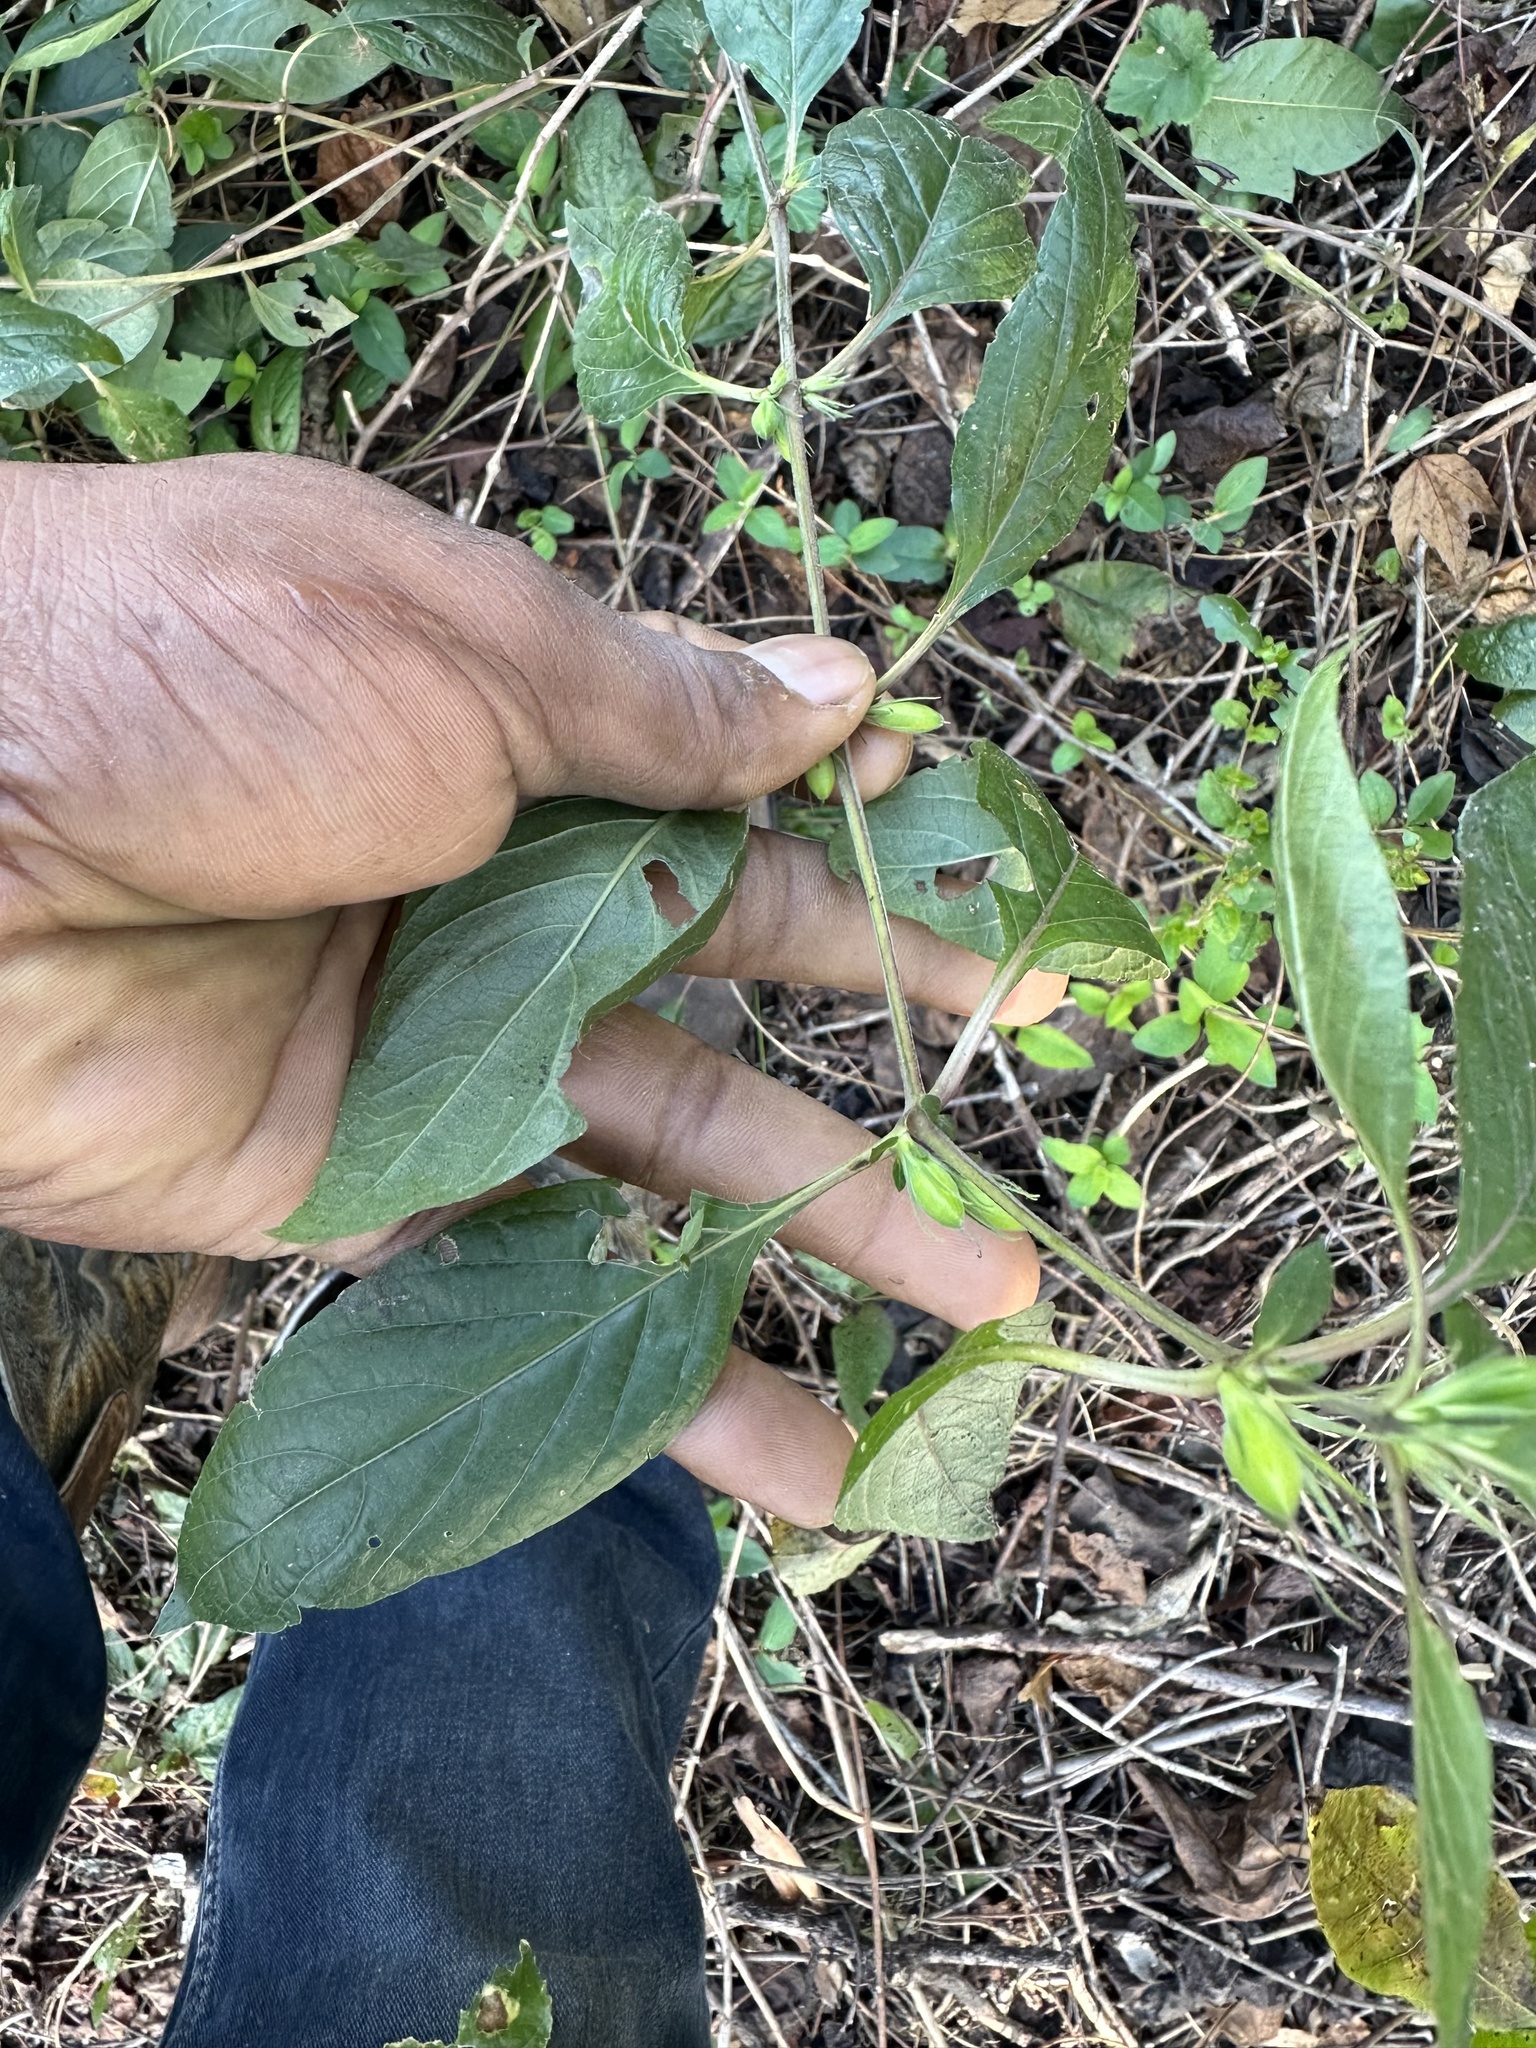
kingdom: Plantae
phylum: Tracheophyta
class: Magnoliopsida
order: Lamiales
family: Acanthaceae
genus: Ruellia
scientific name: Ruellia caroliniensis
